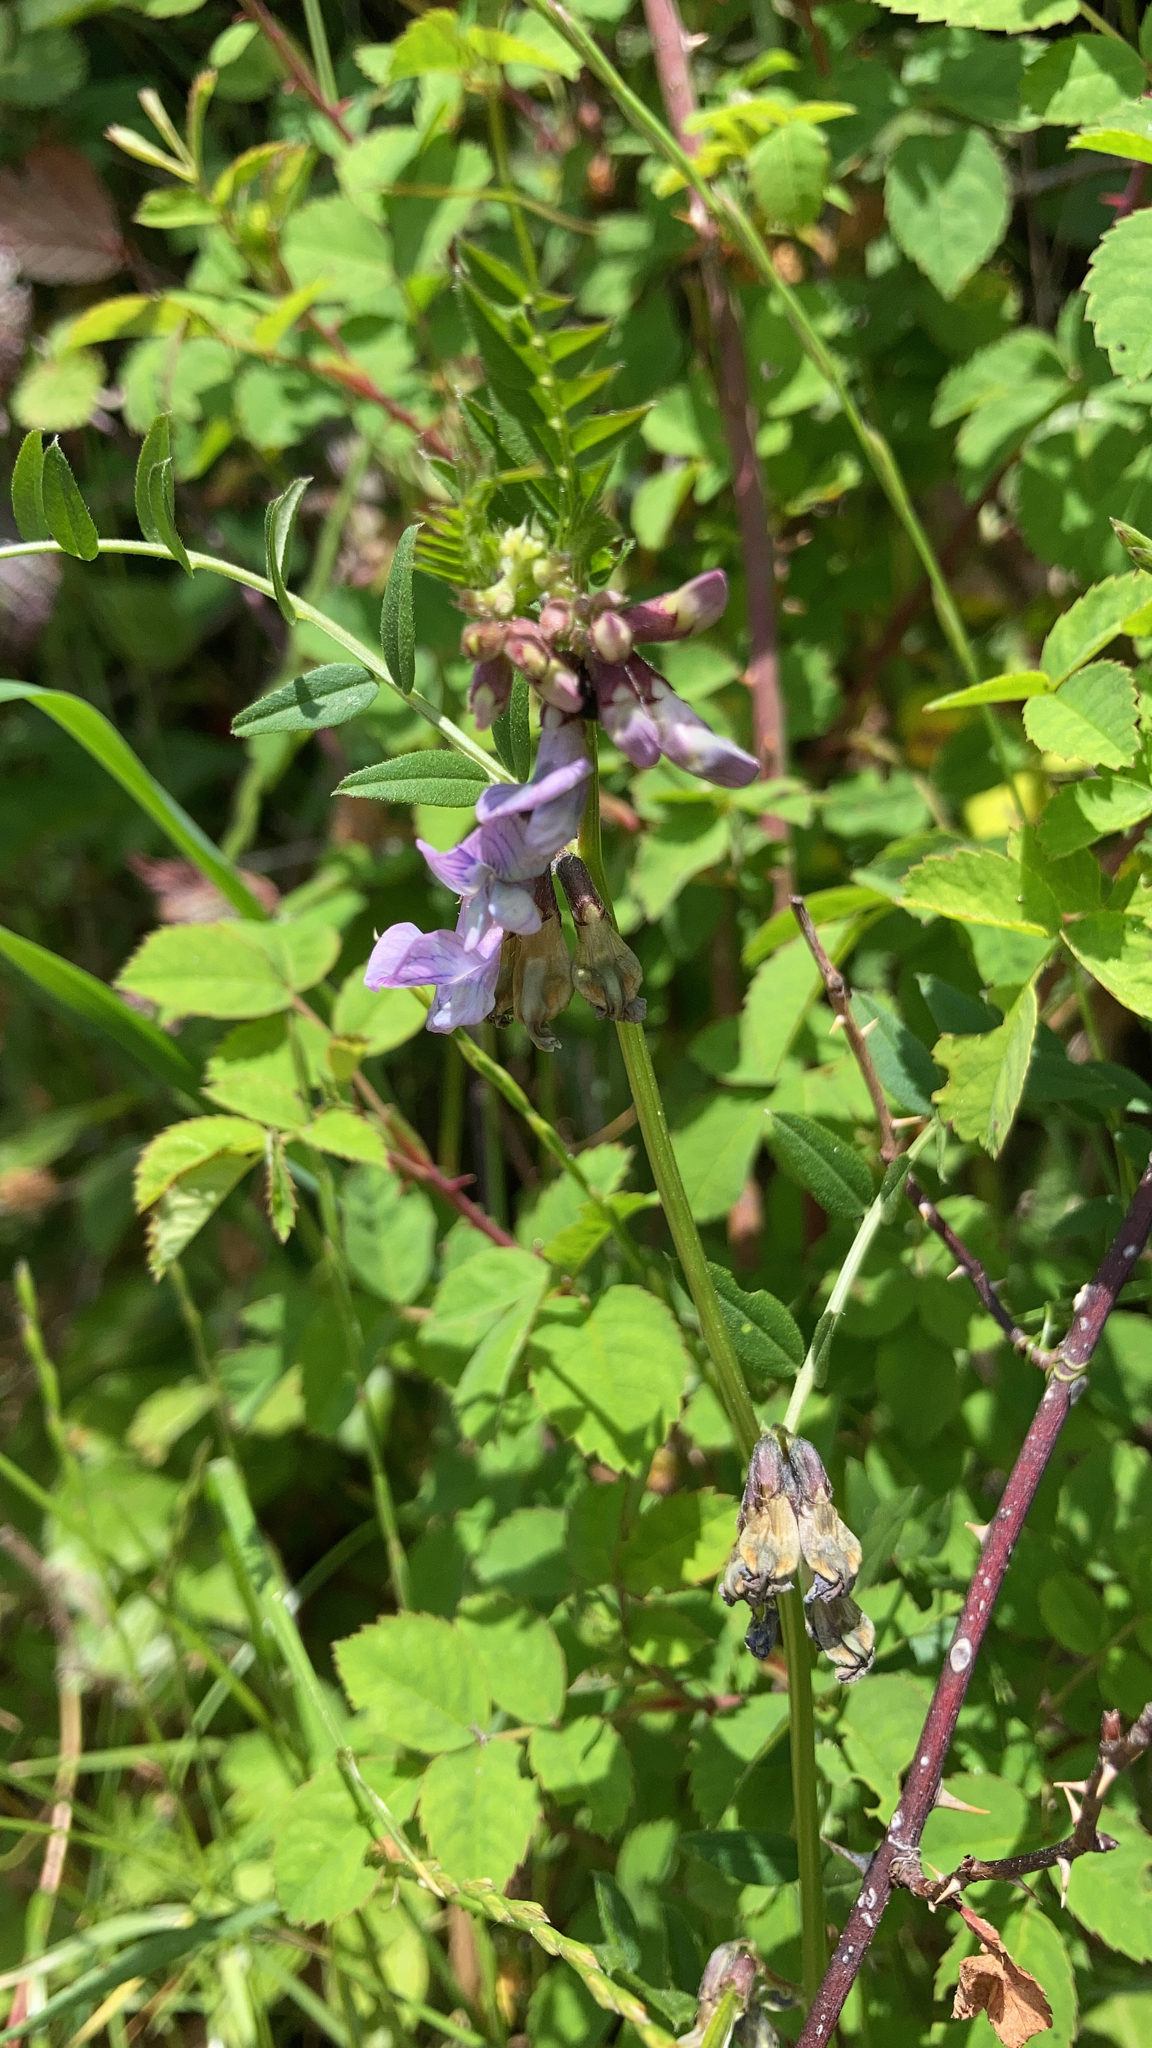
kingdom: Plantae
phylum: Tracheophyta
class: Magnoliopsida
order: Fabales
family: Fabaceae
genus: Vicia
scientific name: Vicia sepium
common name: Bush vetch
